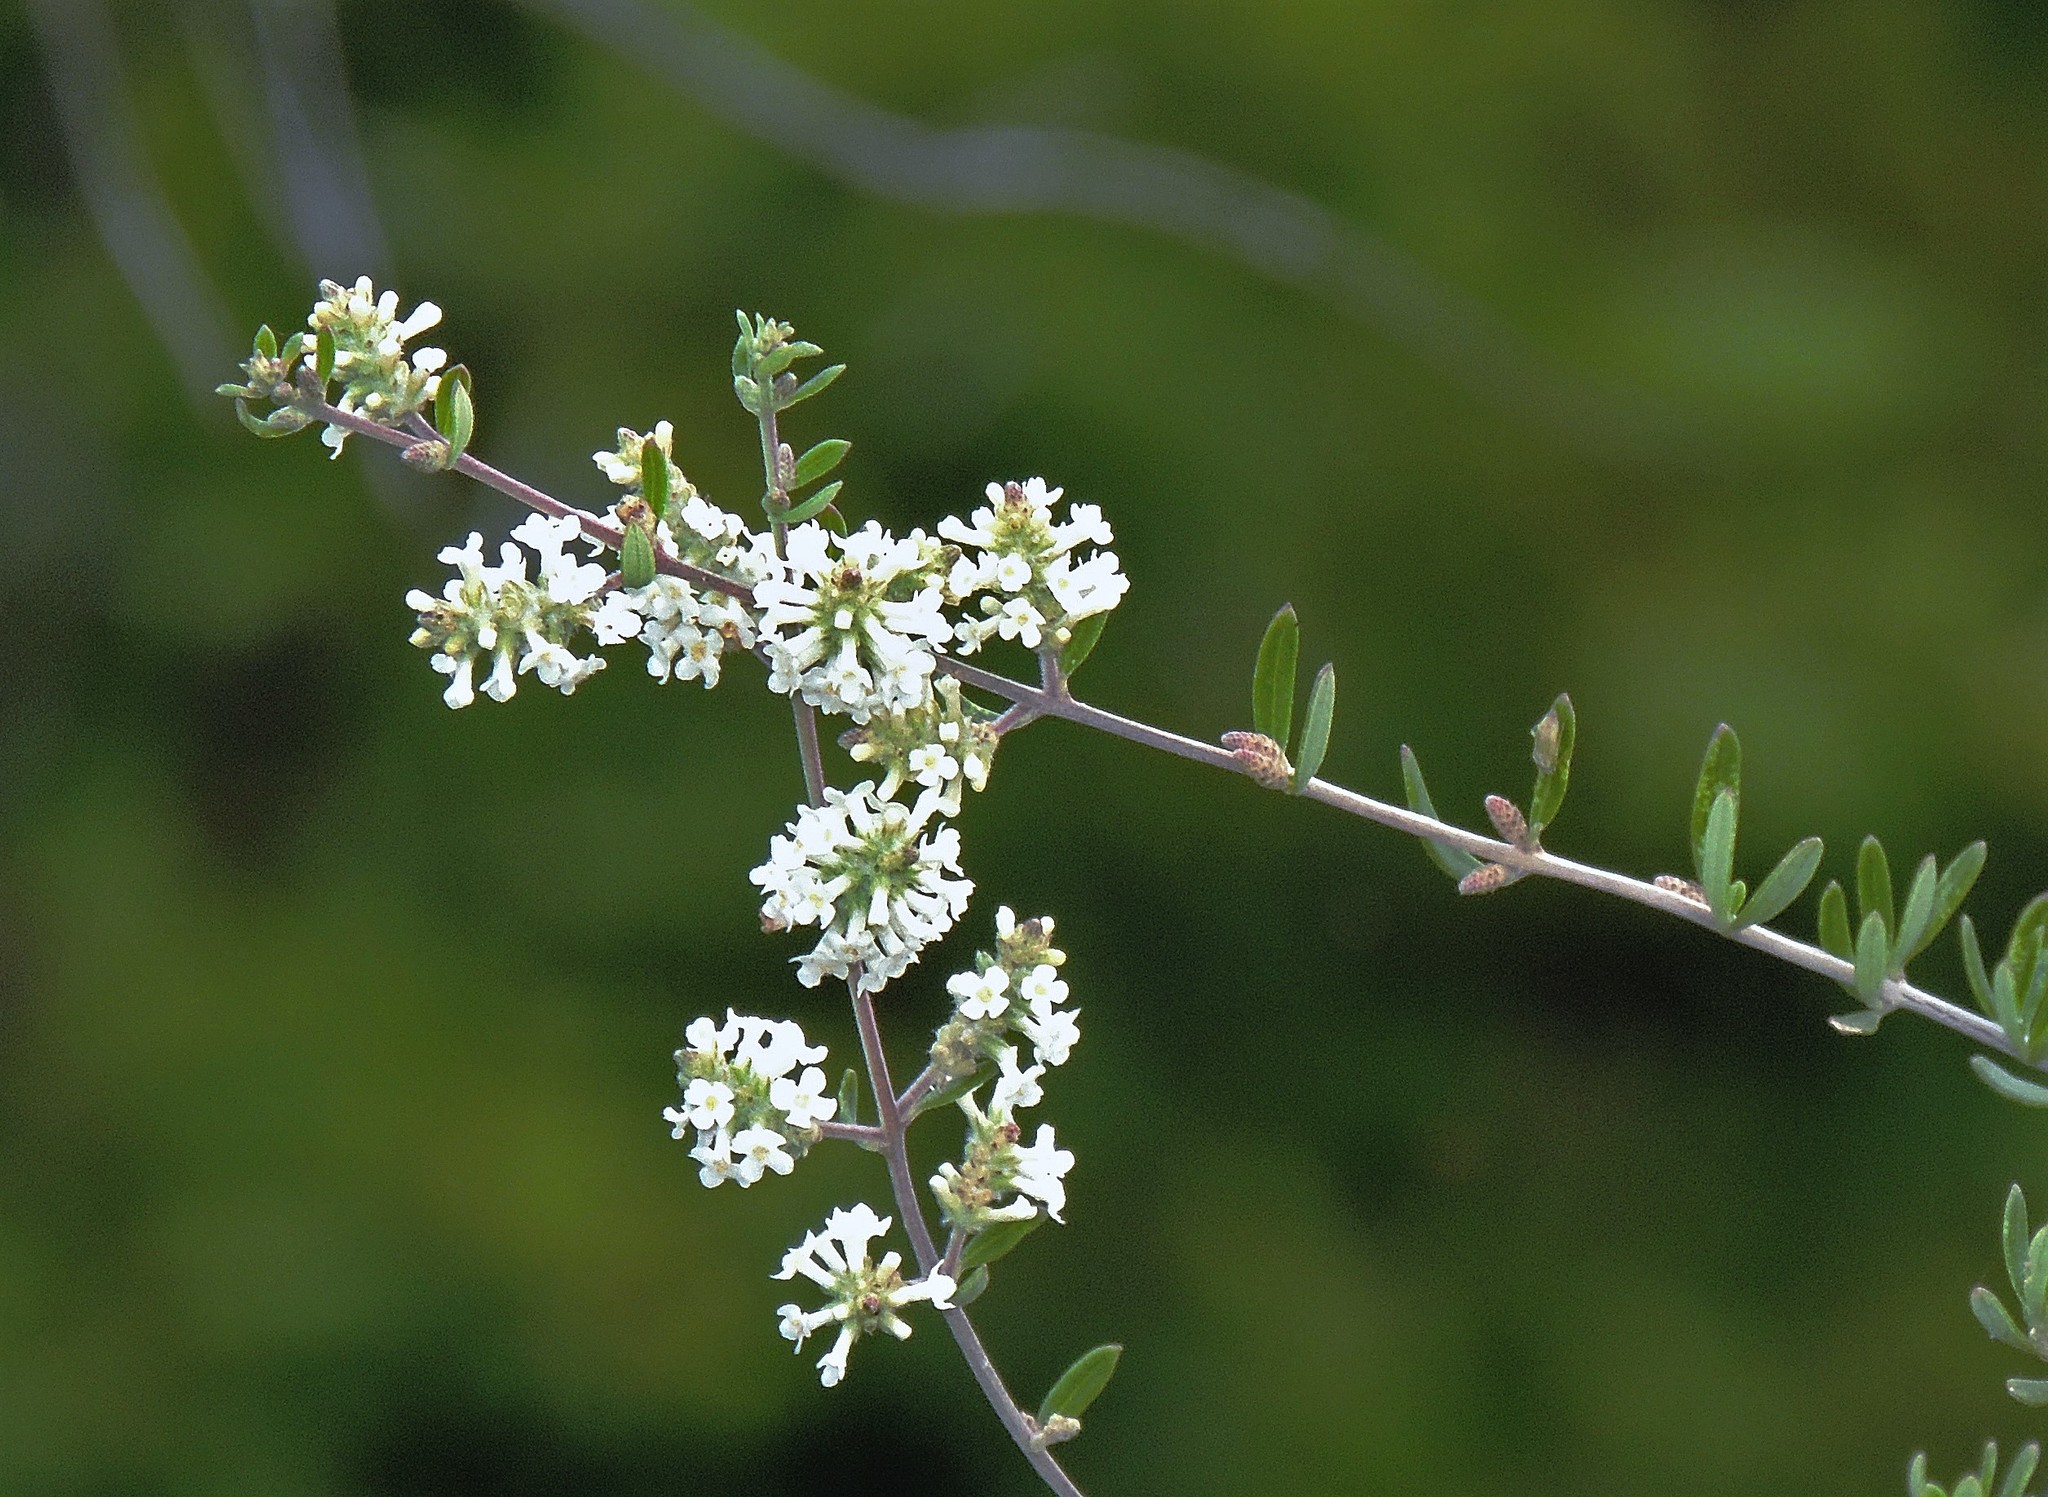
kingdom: Plantae
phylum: Tracheophyta
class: Magnoliopsida
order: Lamiales
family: Verbenaceae
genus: Aloysia
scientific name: Aloysia gratissima
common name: Common bee-brush
